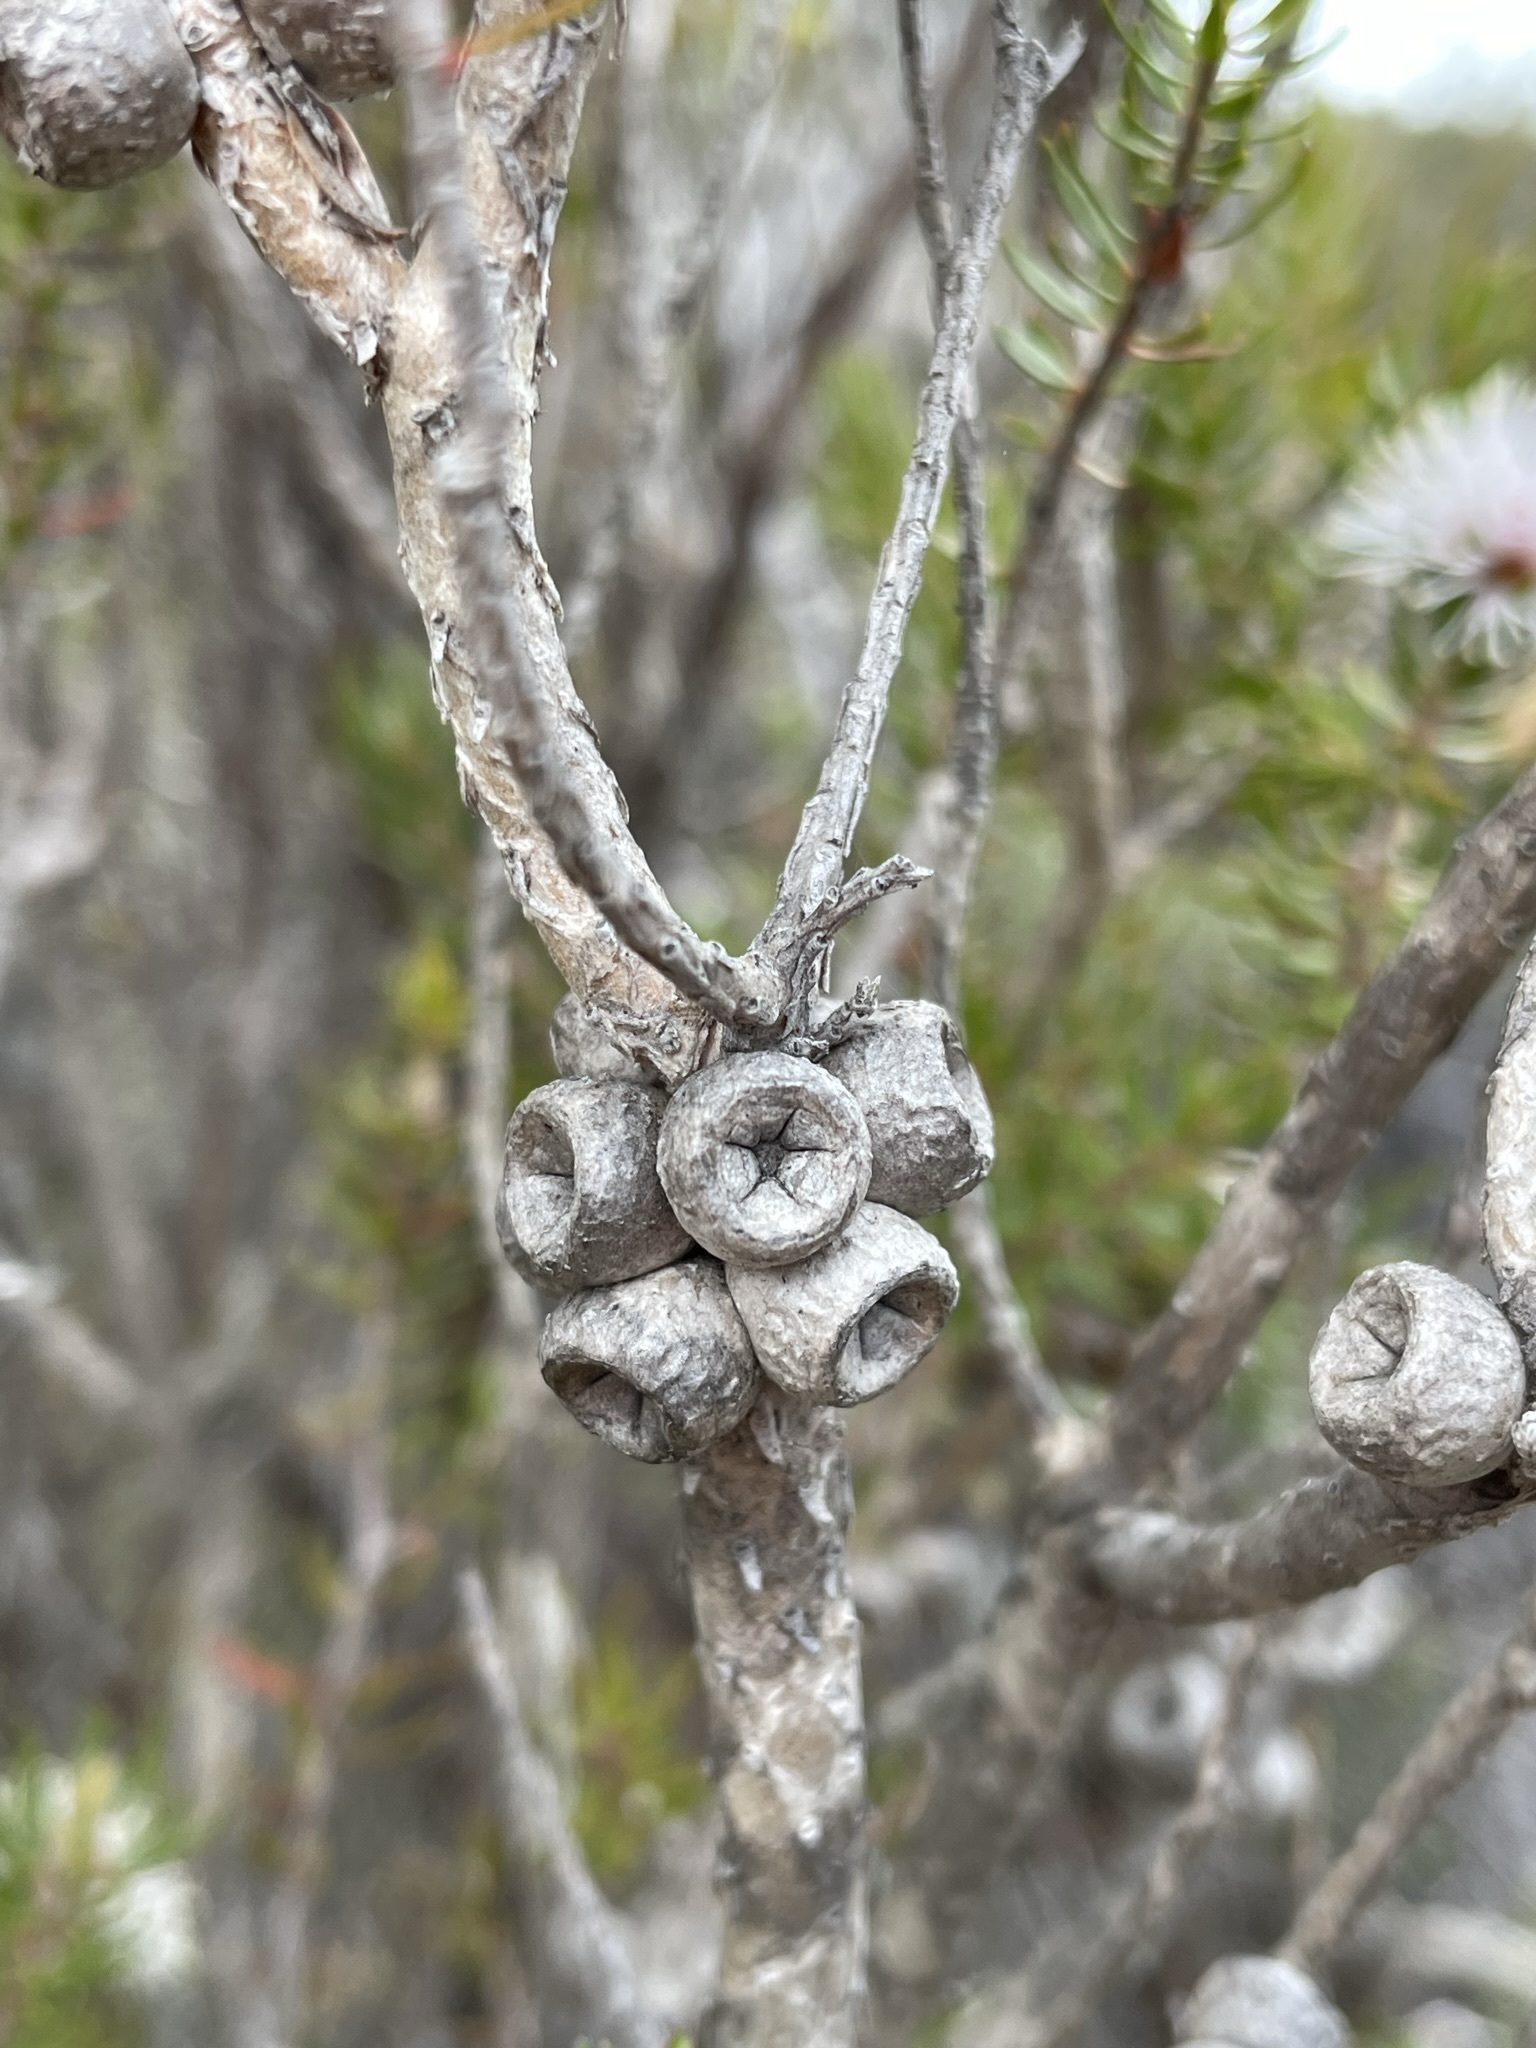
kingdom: Plantae
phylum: Tracheophyta
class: Magnoliopsida
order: Myrtales
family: Myrtaceae
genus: Melaleuca
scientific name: Melaleuca squamea
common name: Swamp melaleuca
